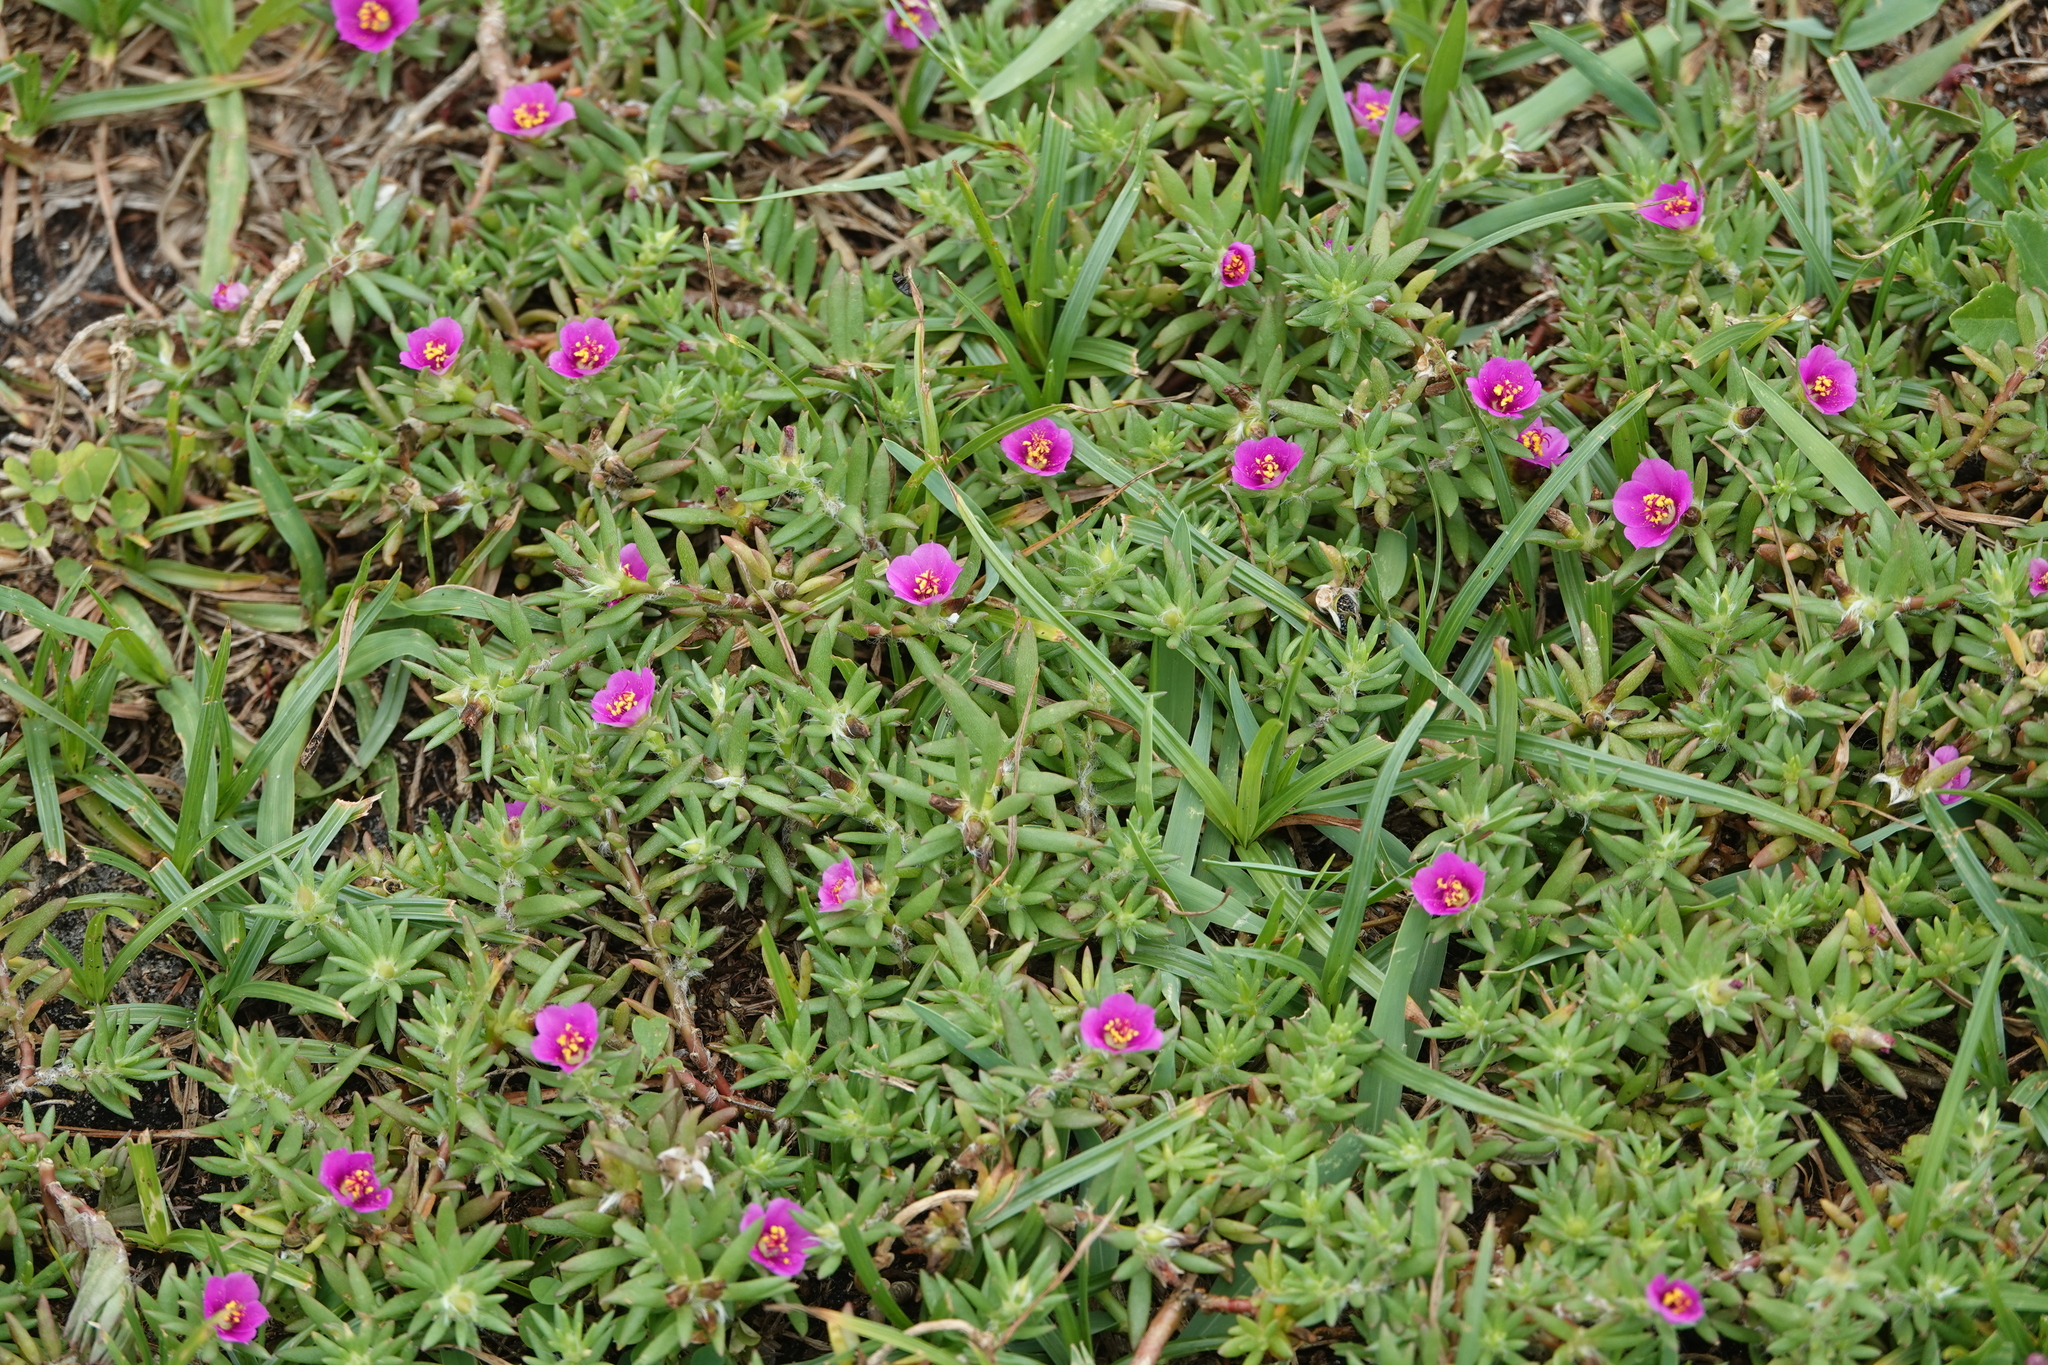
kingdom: Plantae
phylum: Tracheophyta
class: Magnoliopsida
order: Caryophyllales
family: Portulacaceae
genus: Portulaca
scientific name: Portulaca pilosa
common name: Kiss me quick
